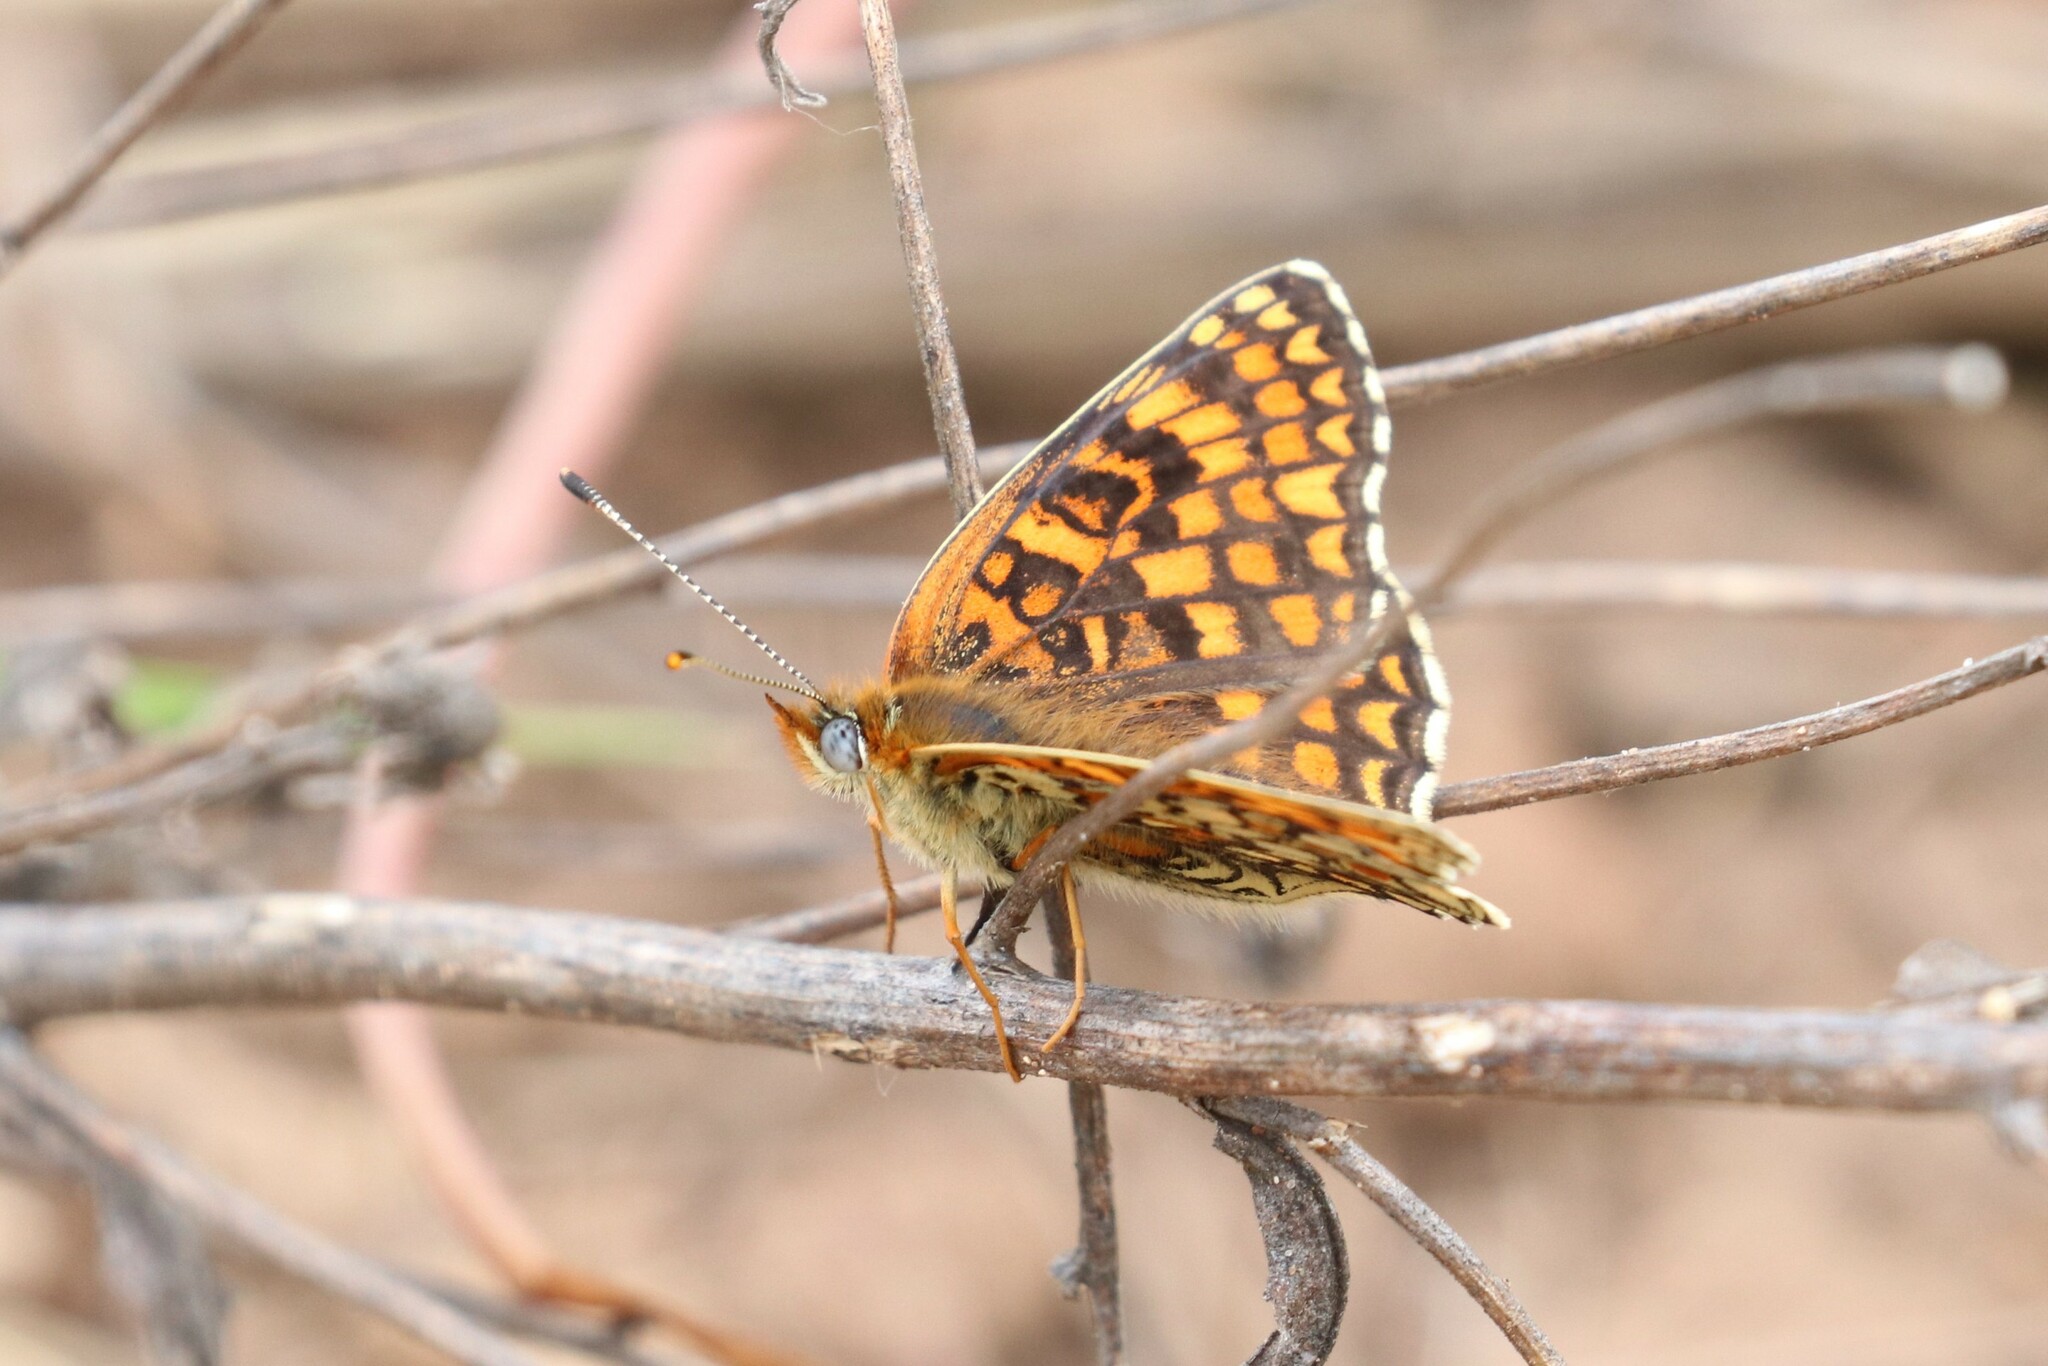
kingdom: Animalia
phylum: Arthropoda
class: Insecta
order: Lepidoptera
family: Nymphalidae
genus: Melitaea
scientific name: Melitaea phoebe
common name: Knapweed fritillary
